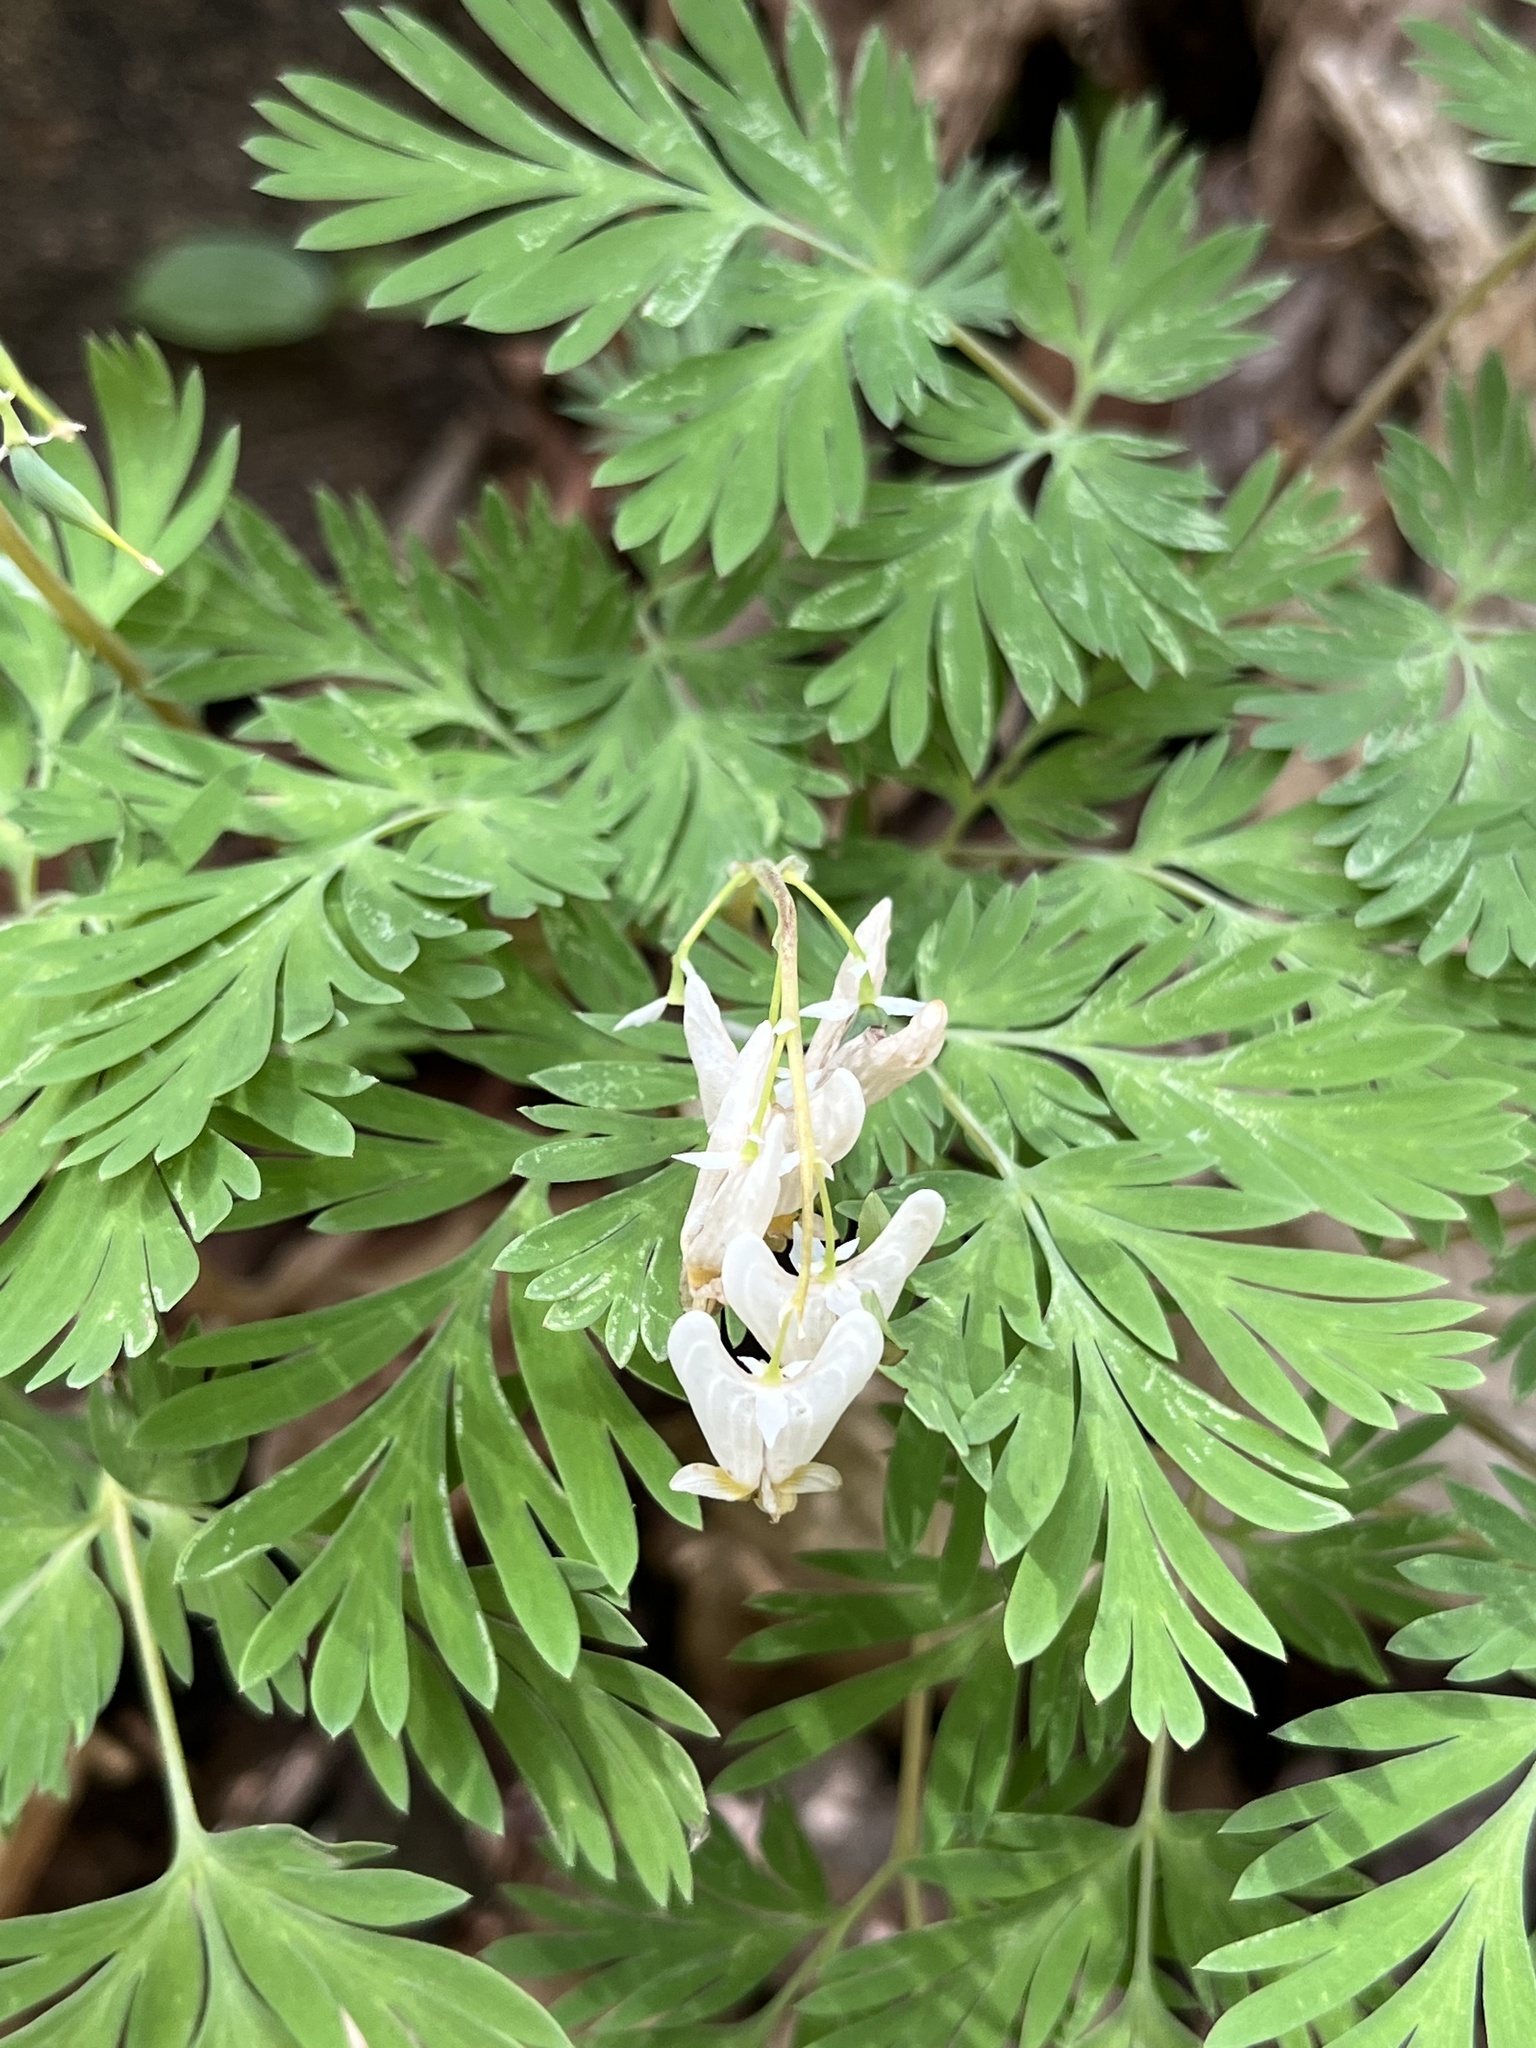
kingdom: Plantae
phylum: Tracheophyta
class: Magnoliopsida
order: Ranunculales
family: Papaveraceae
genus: Dicentra
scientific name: Dicentra cucullaria
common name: Dutchman's breeches
